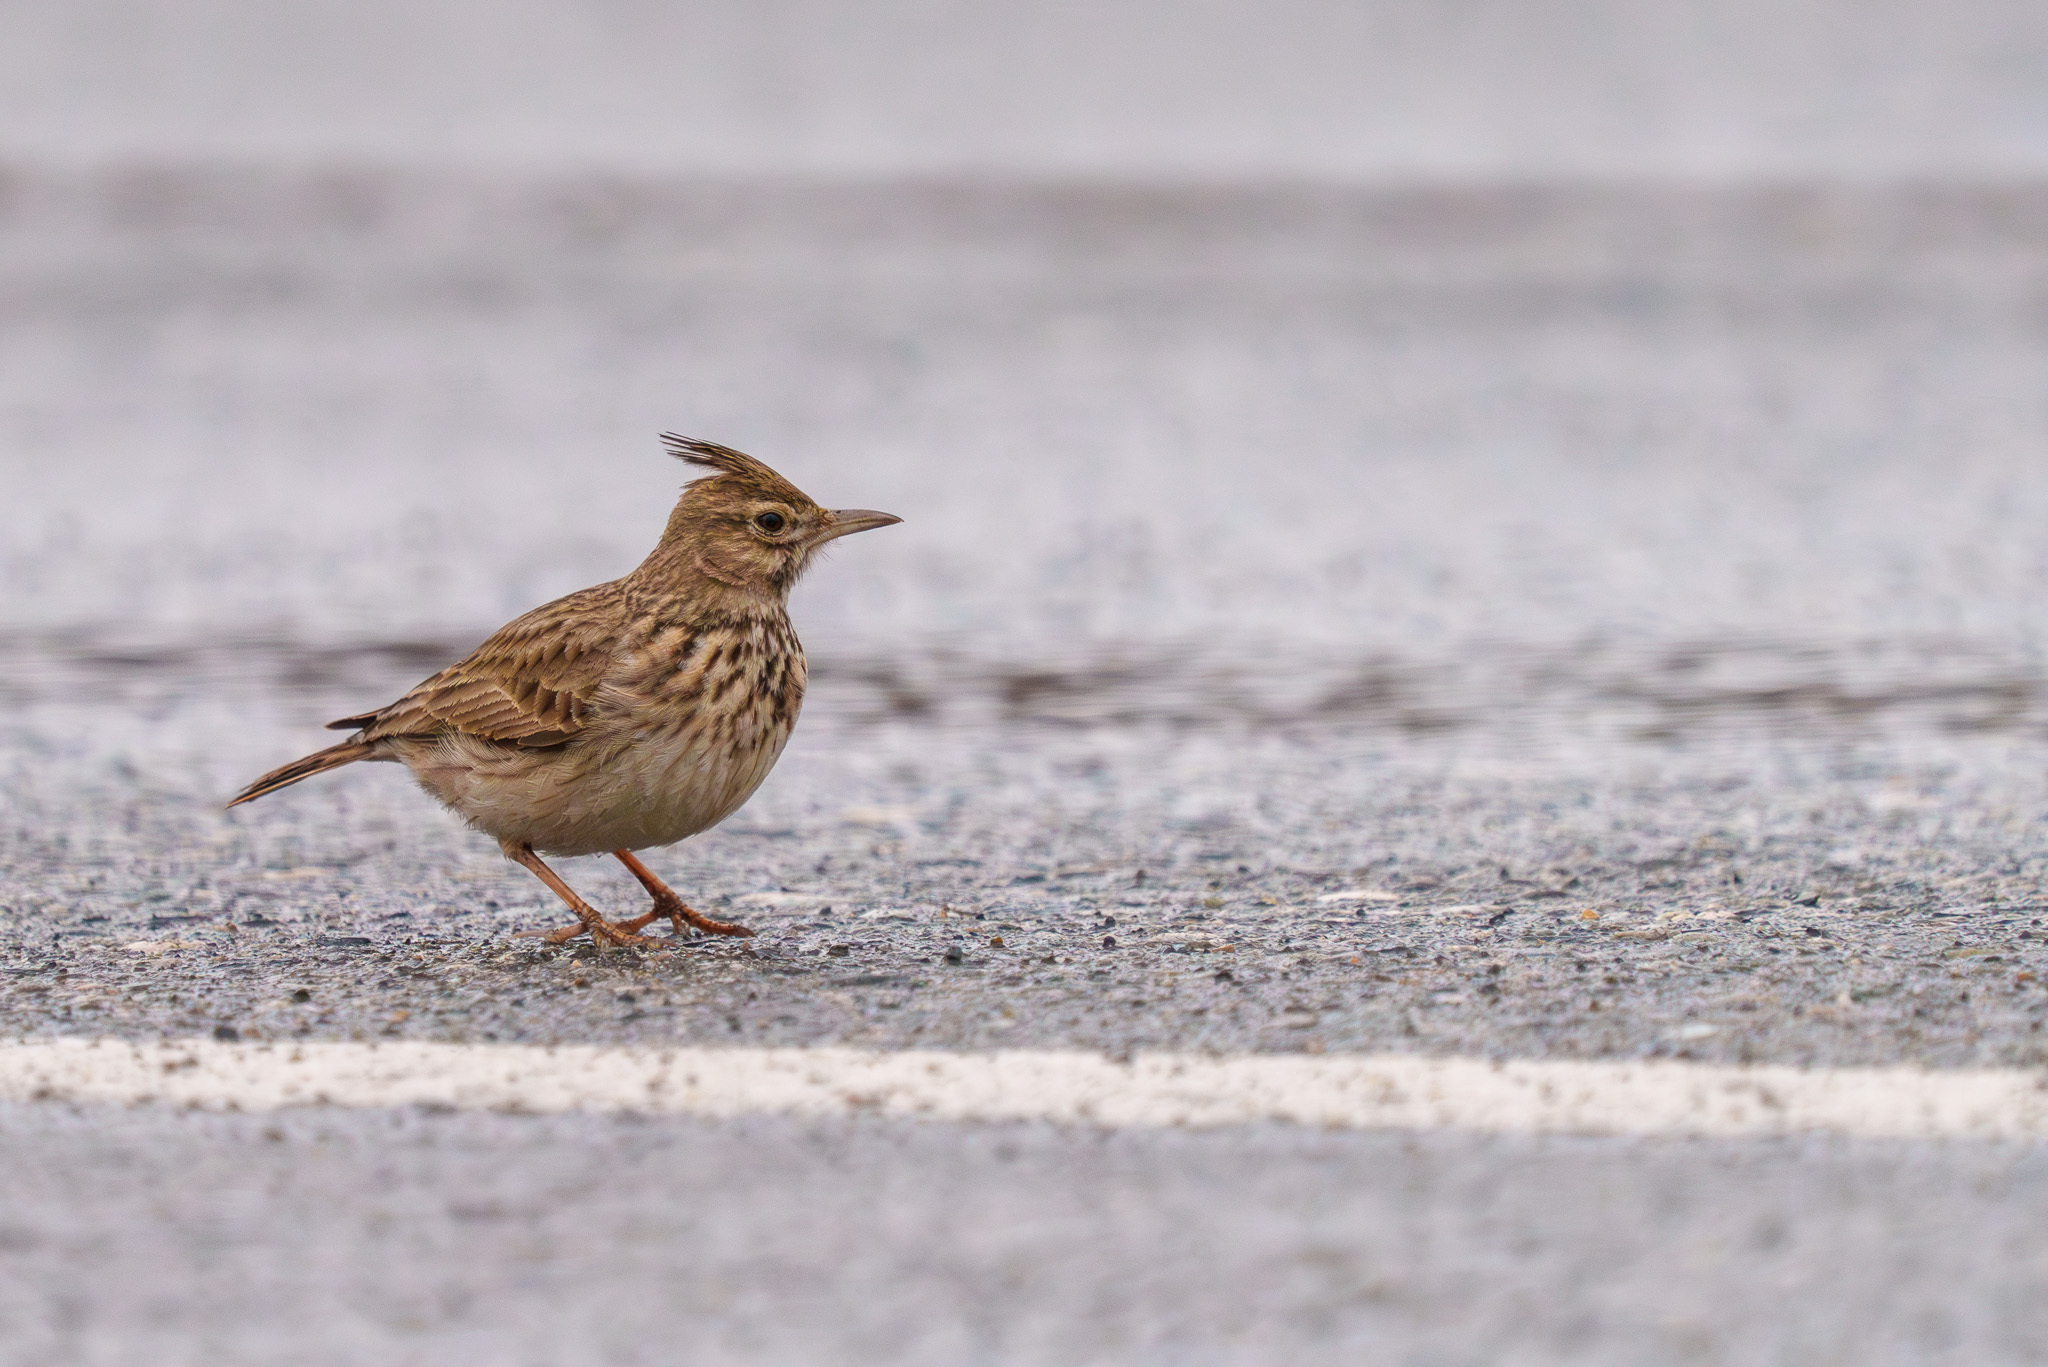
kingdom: Animalia
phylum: Chordata
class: Aves
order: Passeriformes
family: Alaudidae
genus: Galerida
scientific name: Galerida cristata
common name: Crested lark
